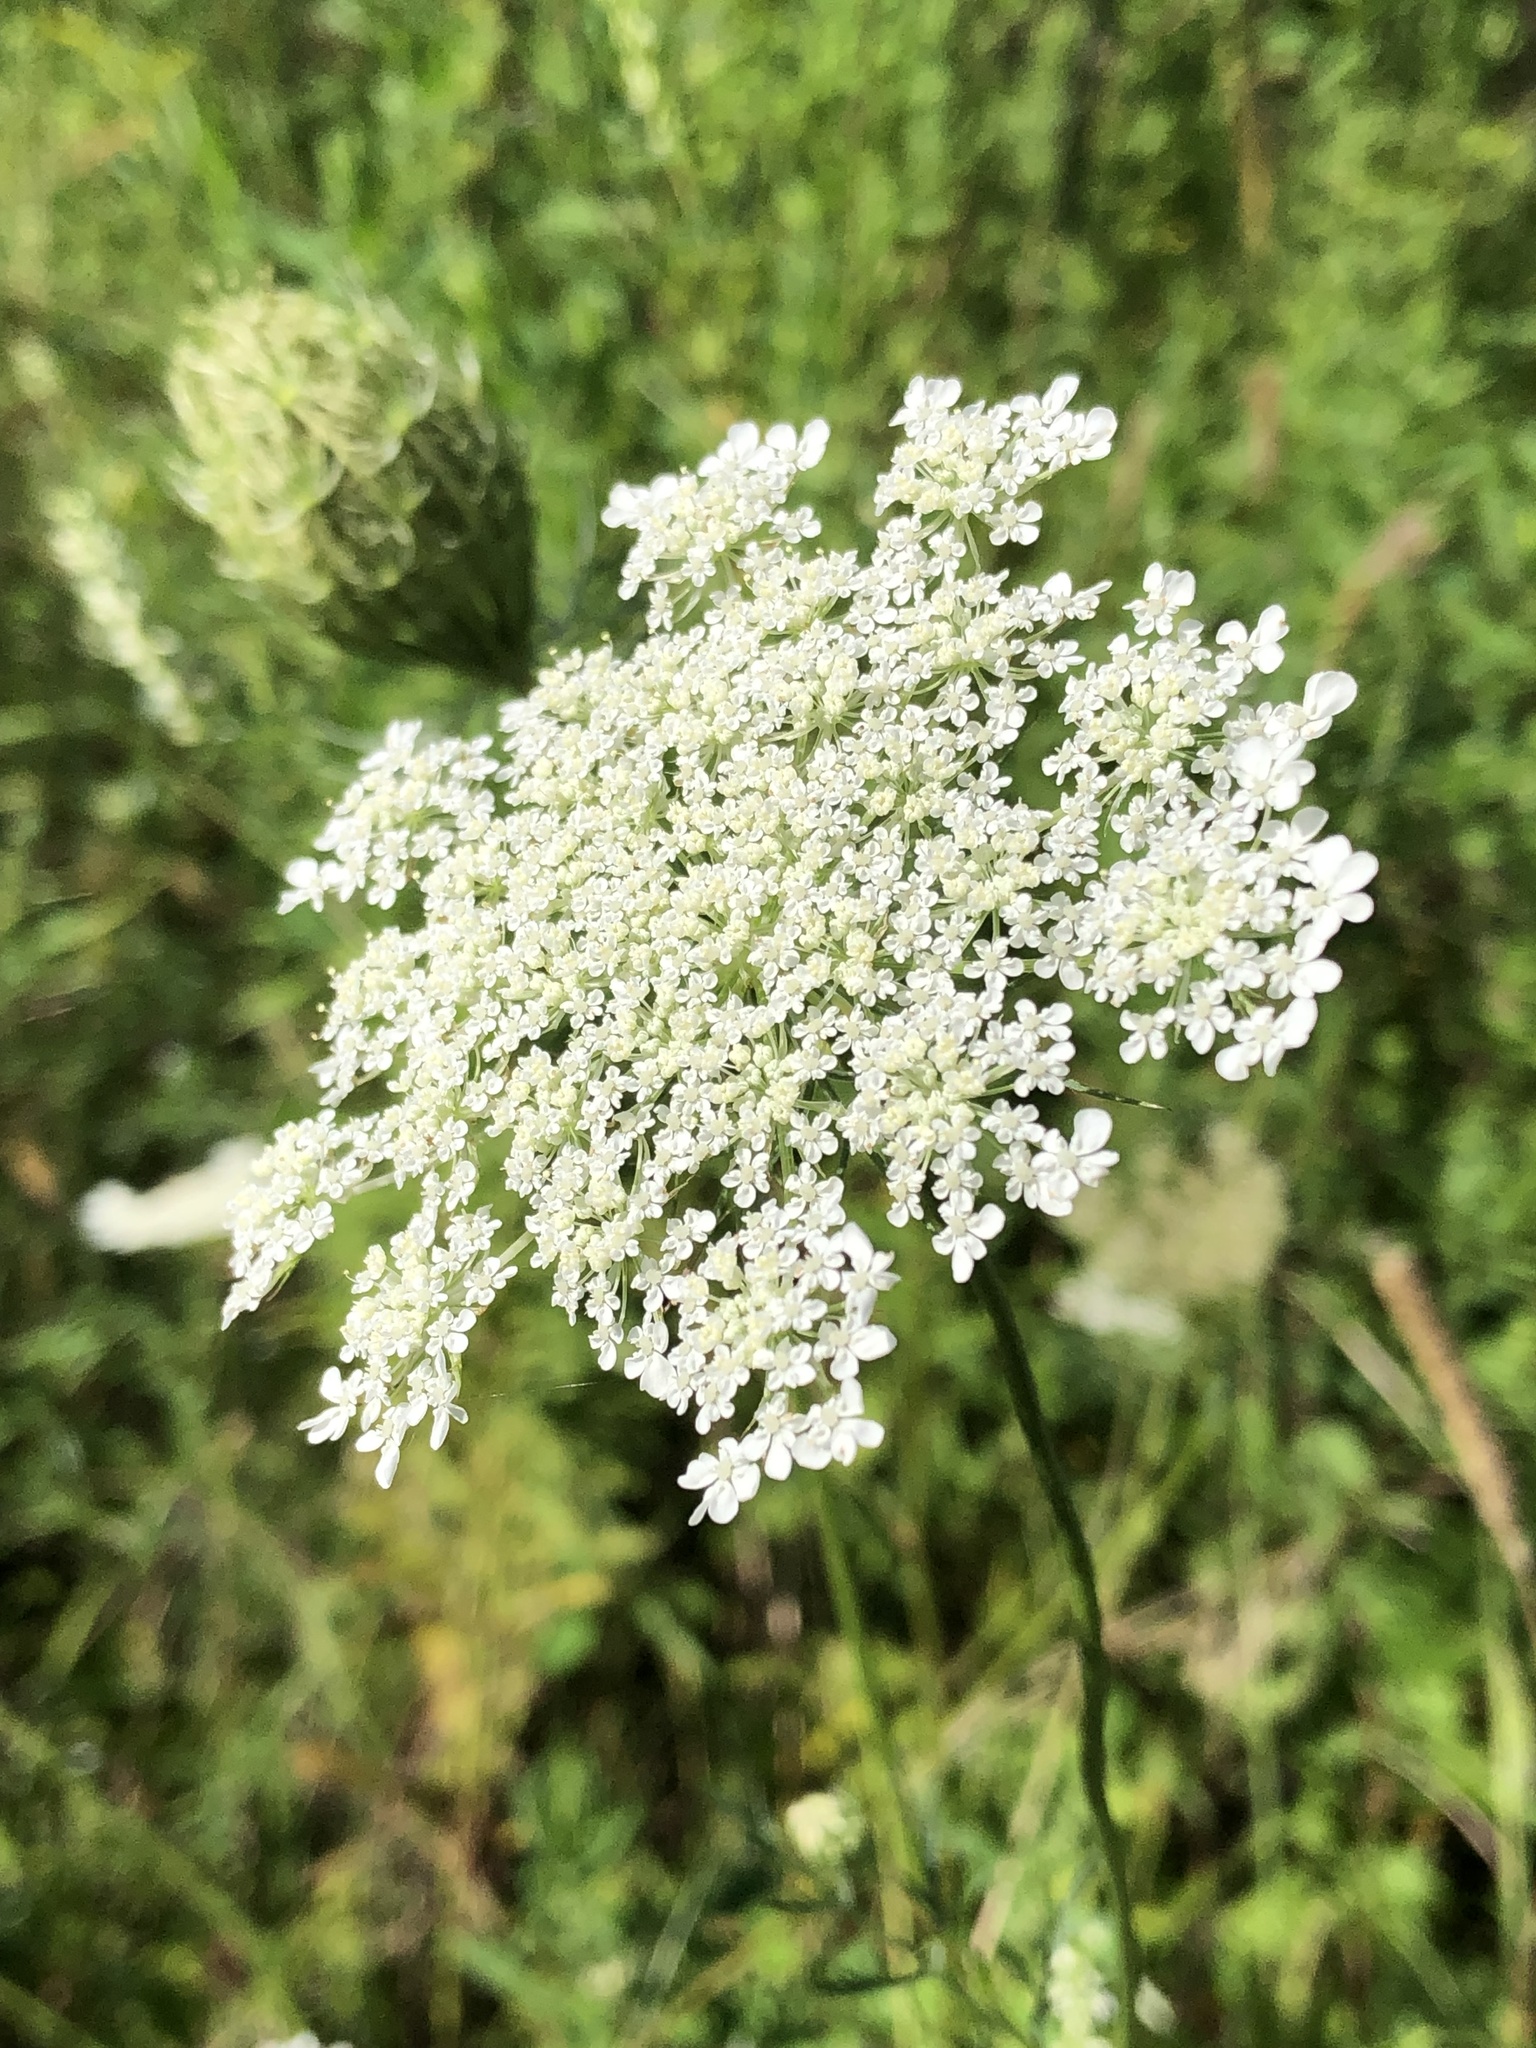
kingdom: Plantae
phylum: Tracheophyta
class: Magnoliopsida
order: Apiales
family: Apiaceae
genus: Daucus
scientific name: Daucus carota
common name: Wild carrot
